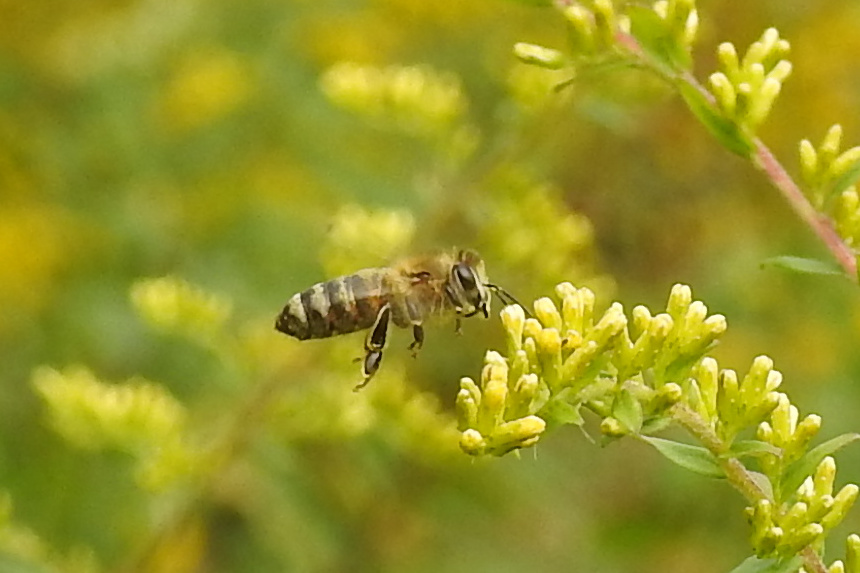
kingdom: Animalia
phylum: Arthropoda
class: Insecta
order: Hymenoptera
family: Apidae
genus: Apis
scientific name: Apis mellifera
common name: Honey bee
